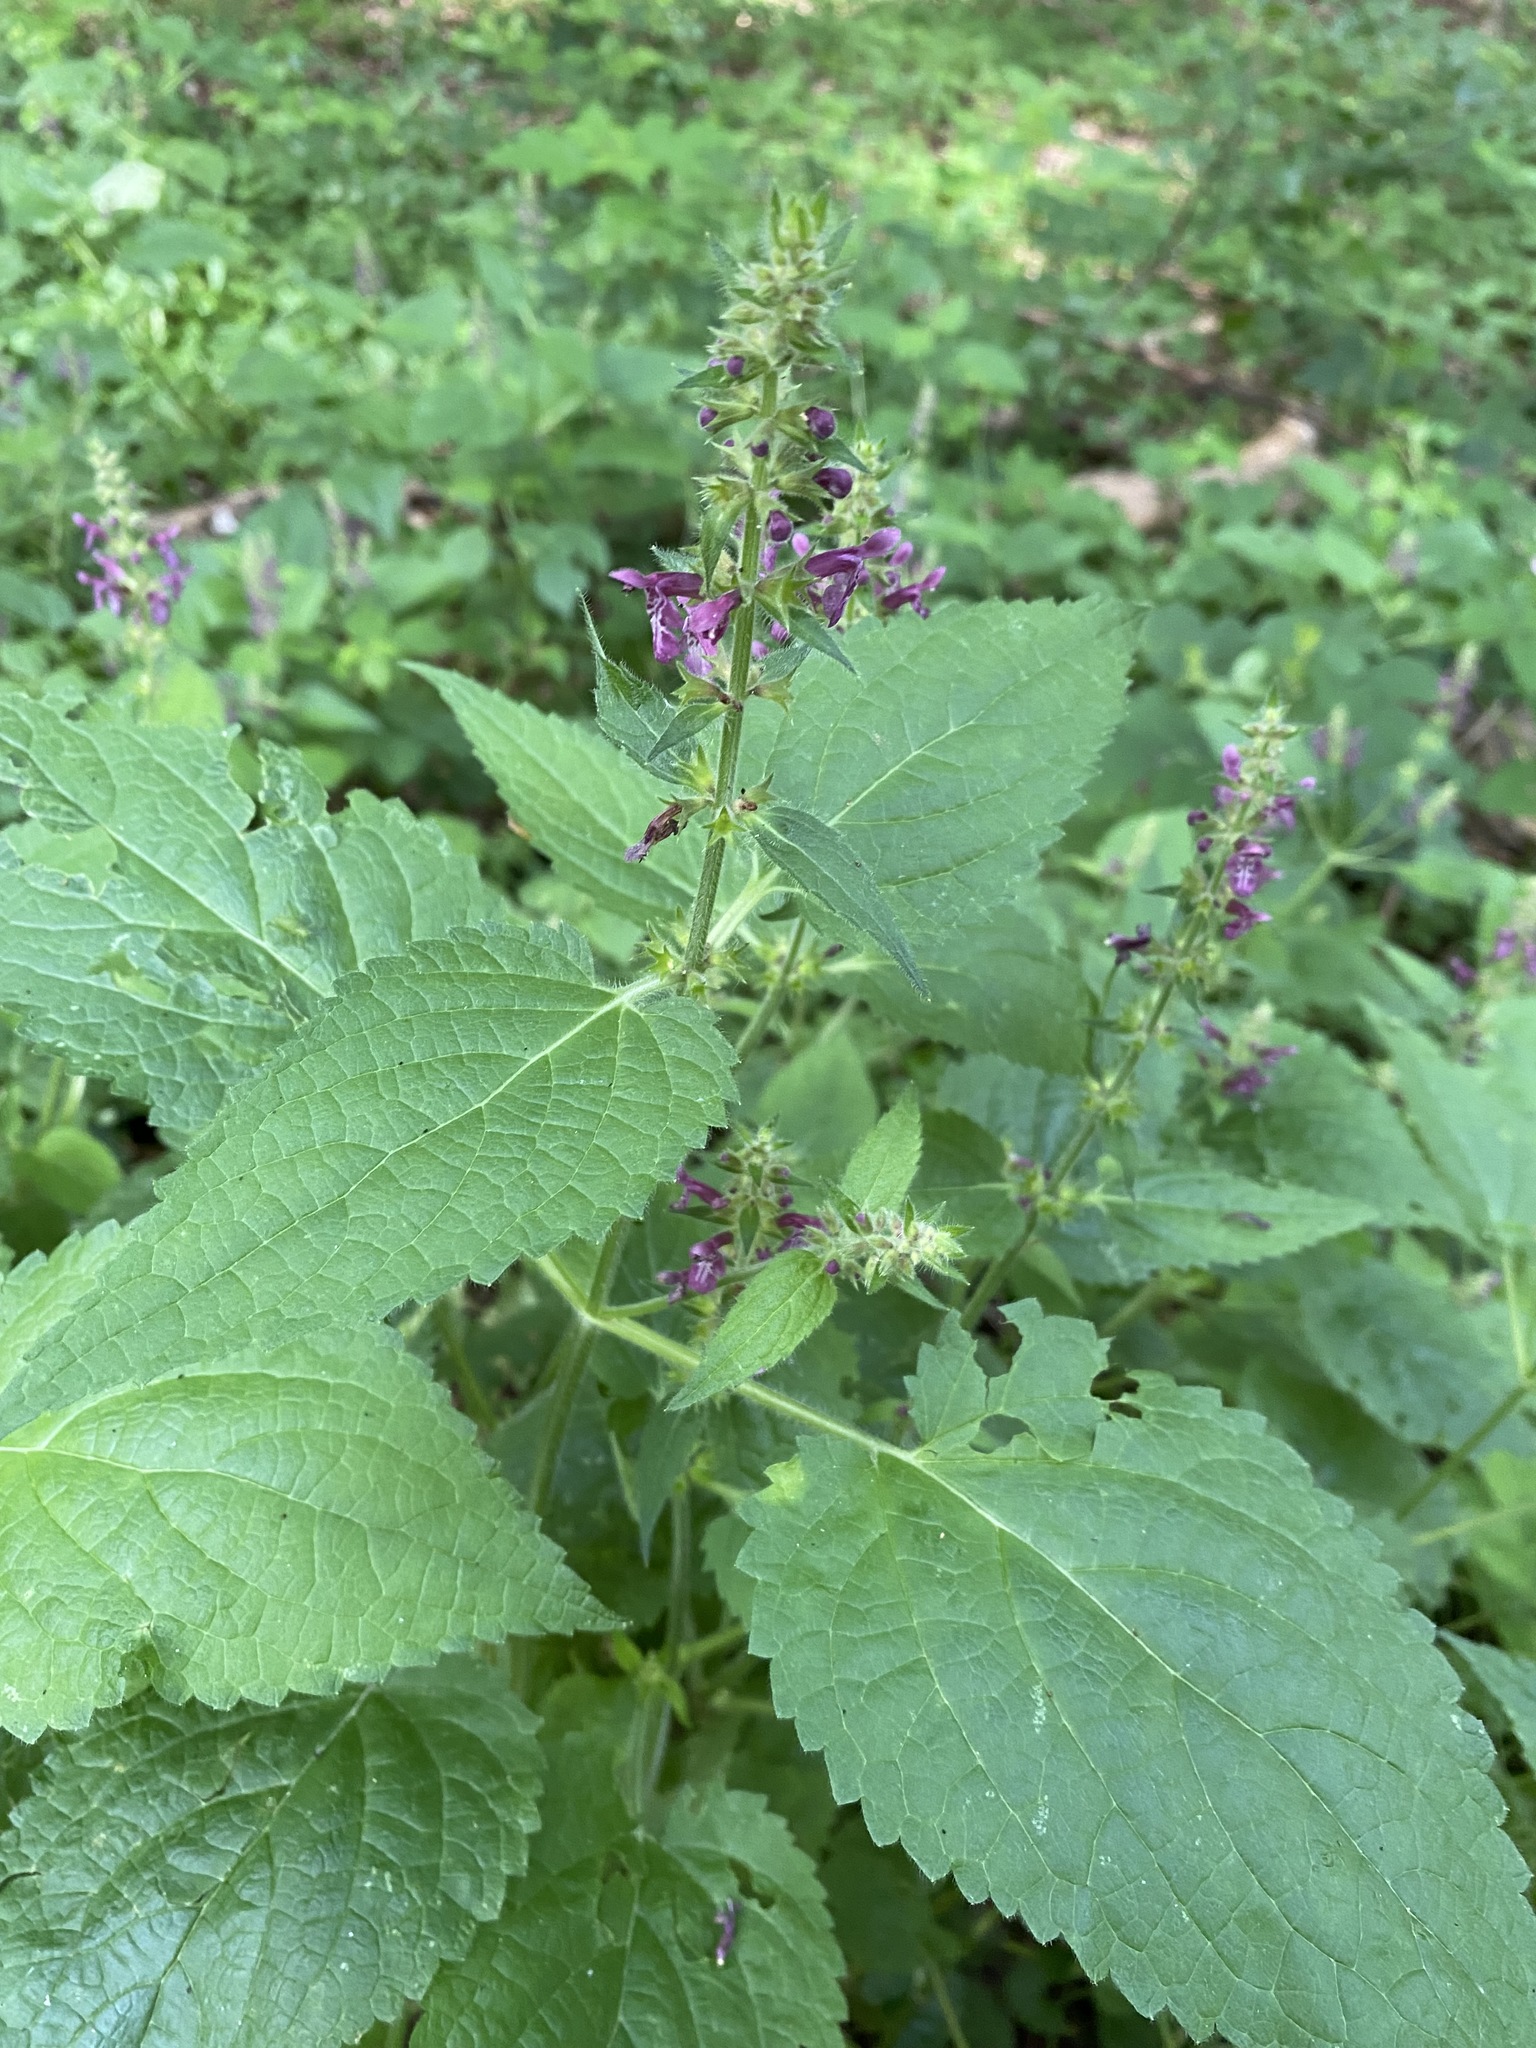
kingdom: Plantae
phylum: Tracheophyta
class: Magnoliopsida
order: Lamiales
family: Lamiaceae
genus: Stachys
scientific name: Stachys sylvatica
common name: Hedge woundwort
